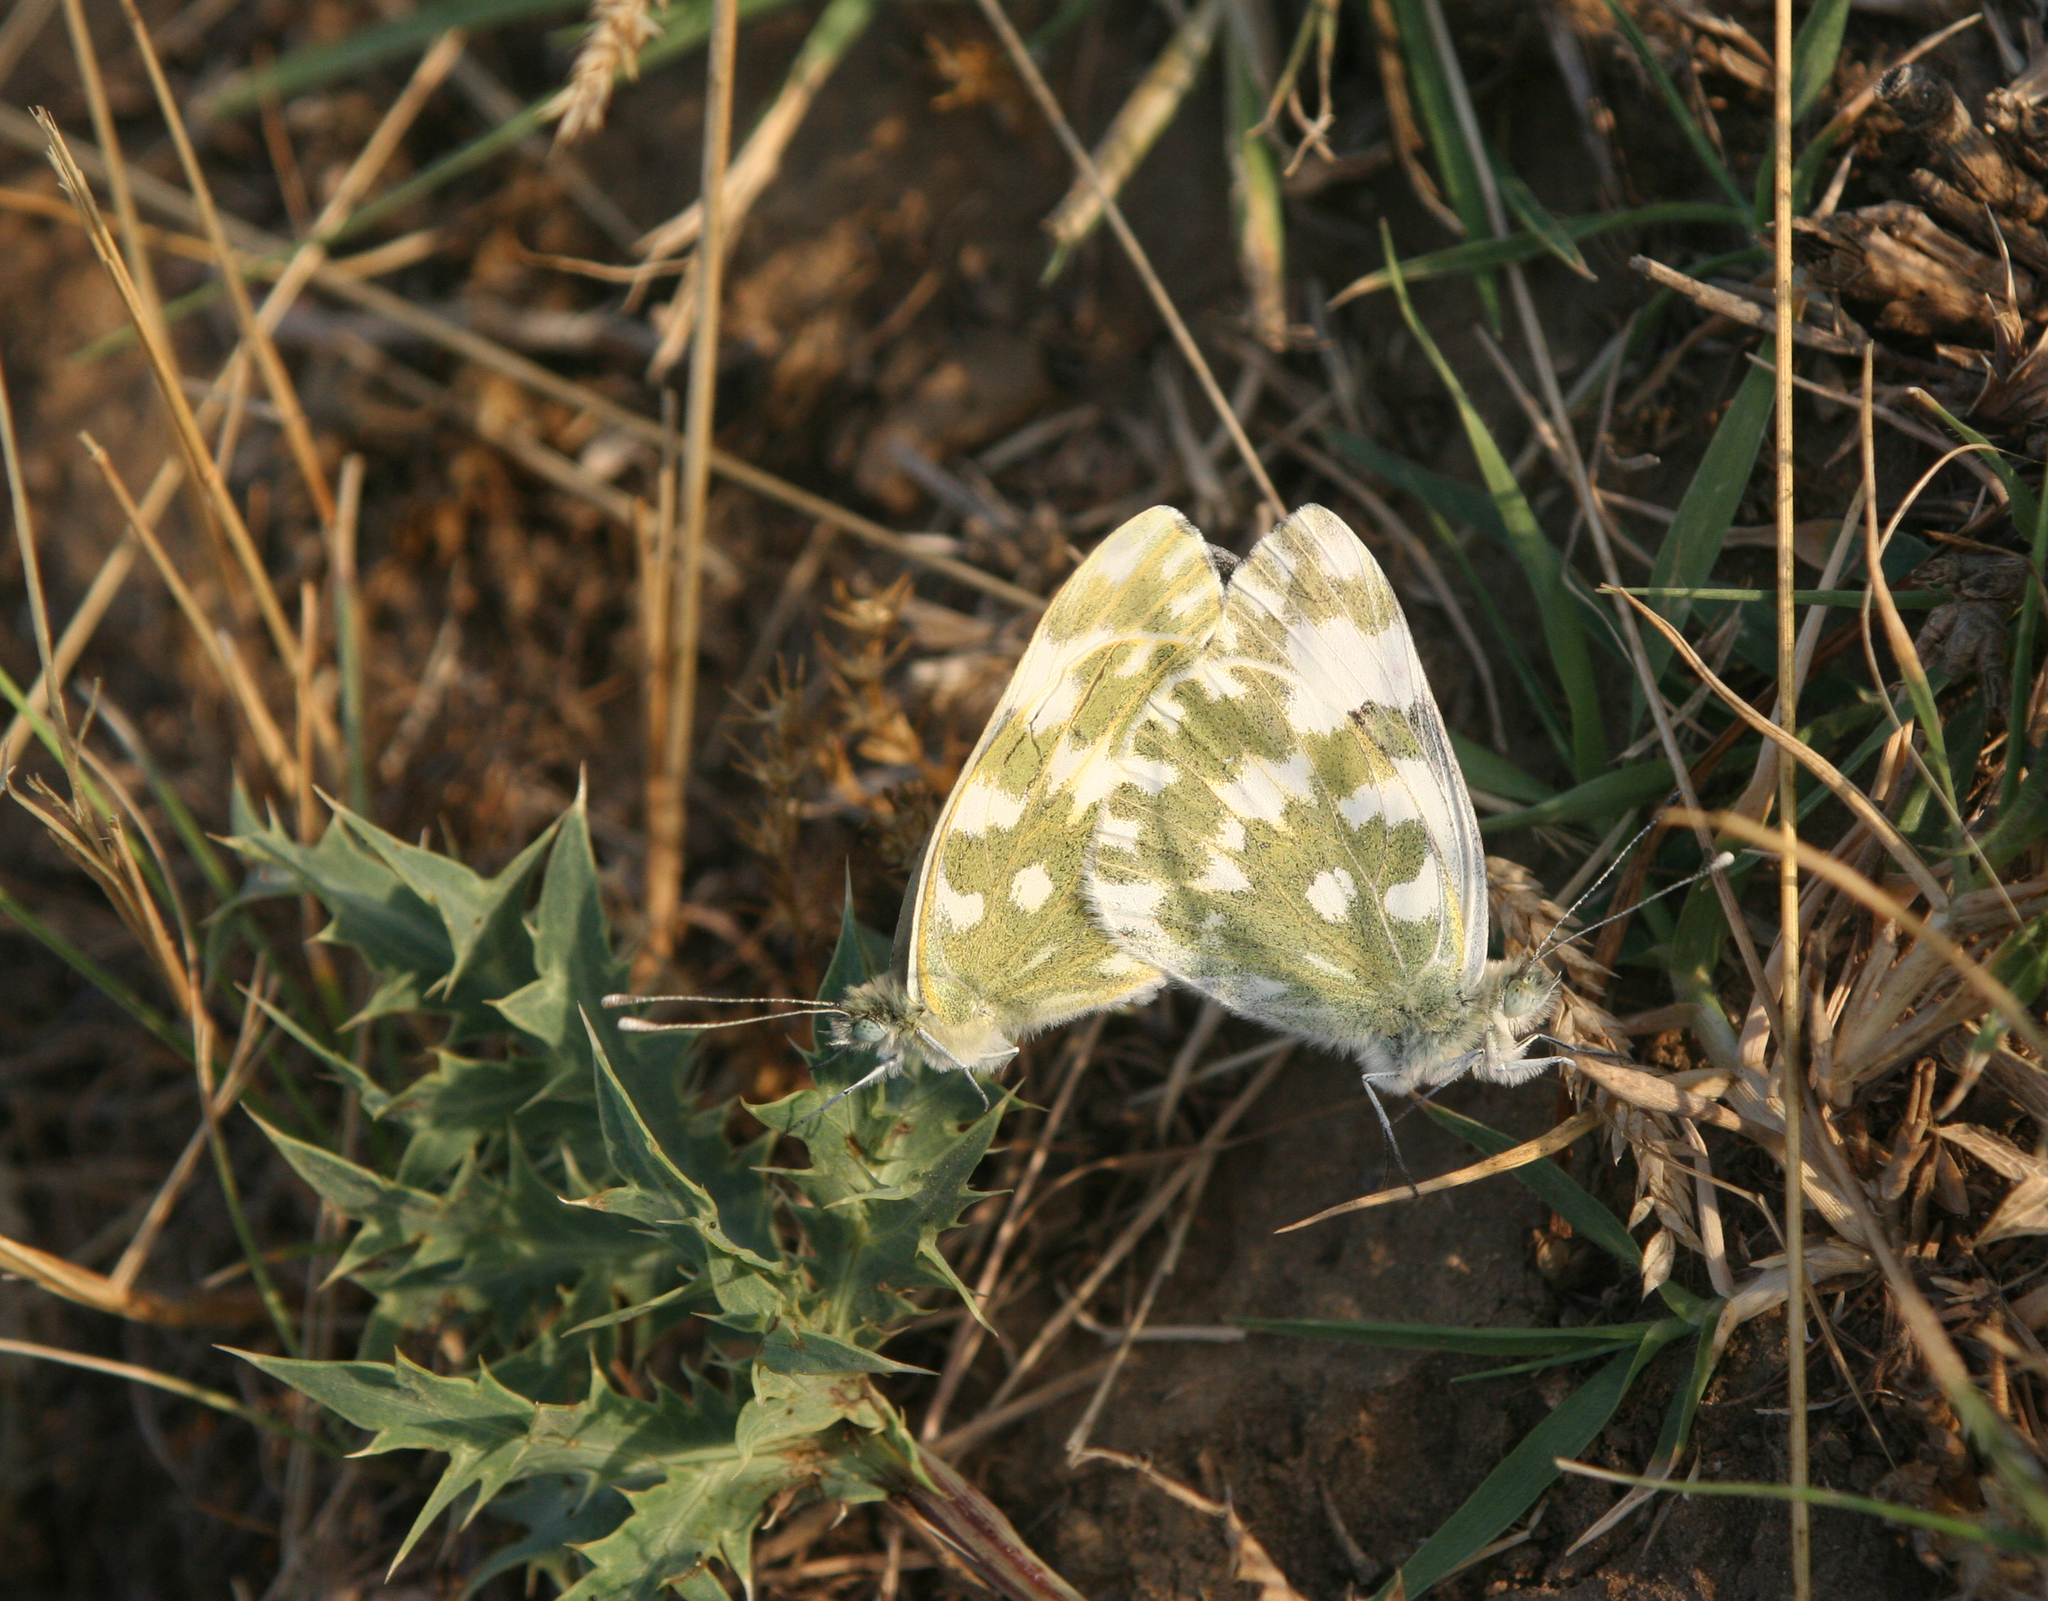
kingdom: Animalia
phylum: Arthropoda
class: Insecta
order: Lepidoptera
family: Pieridae
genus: Pontia
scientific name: Pontia edusa
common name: Eastern bath white
